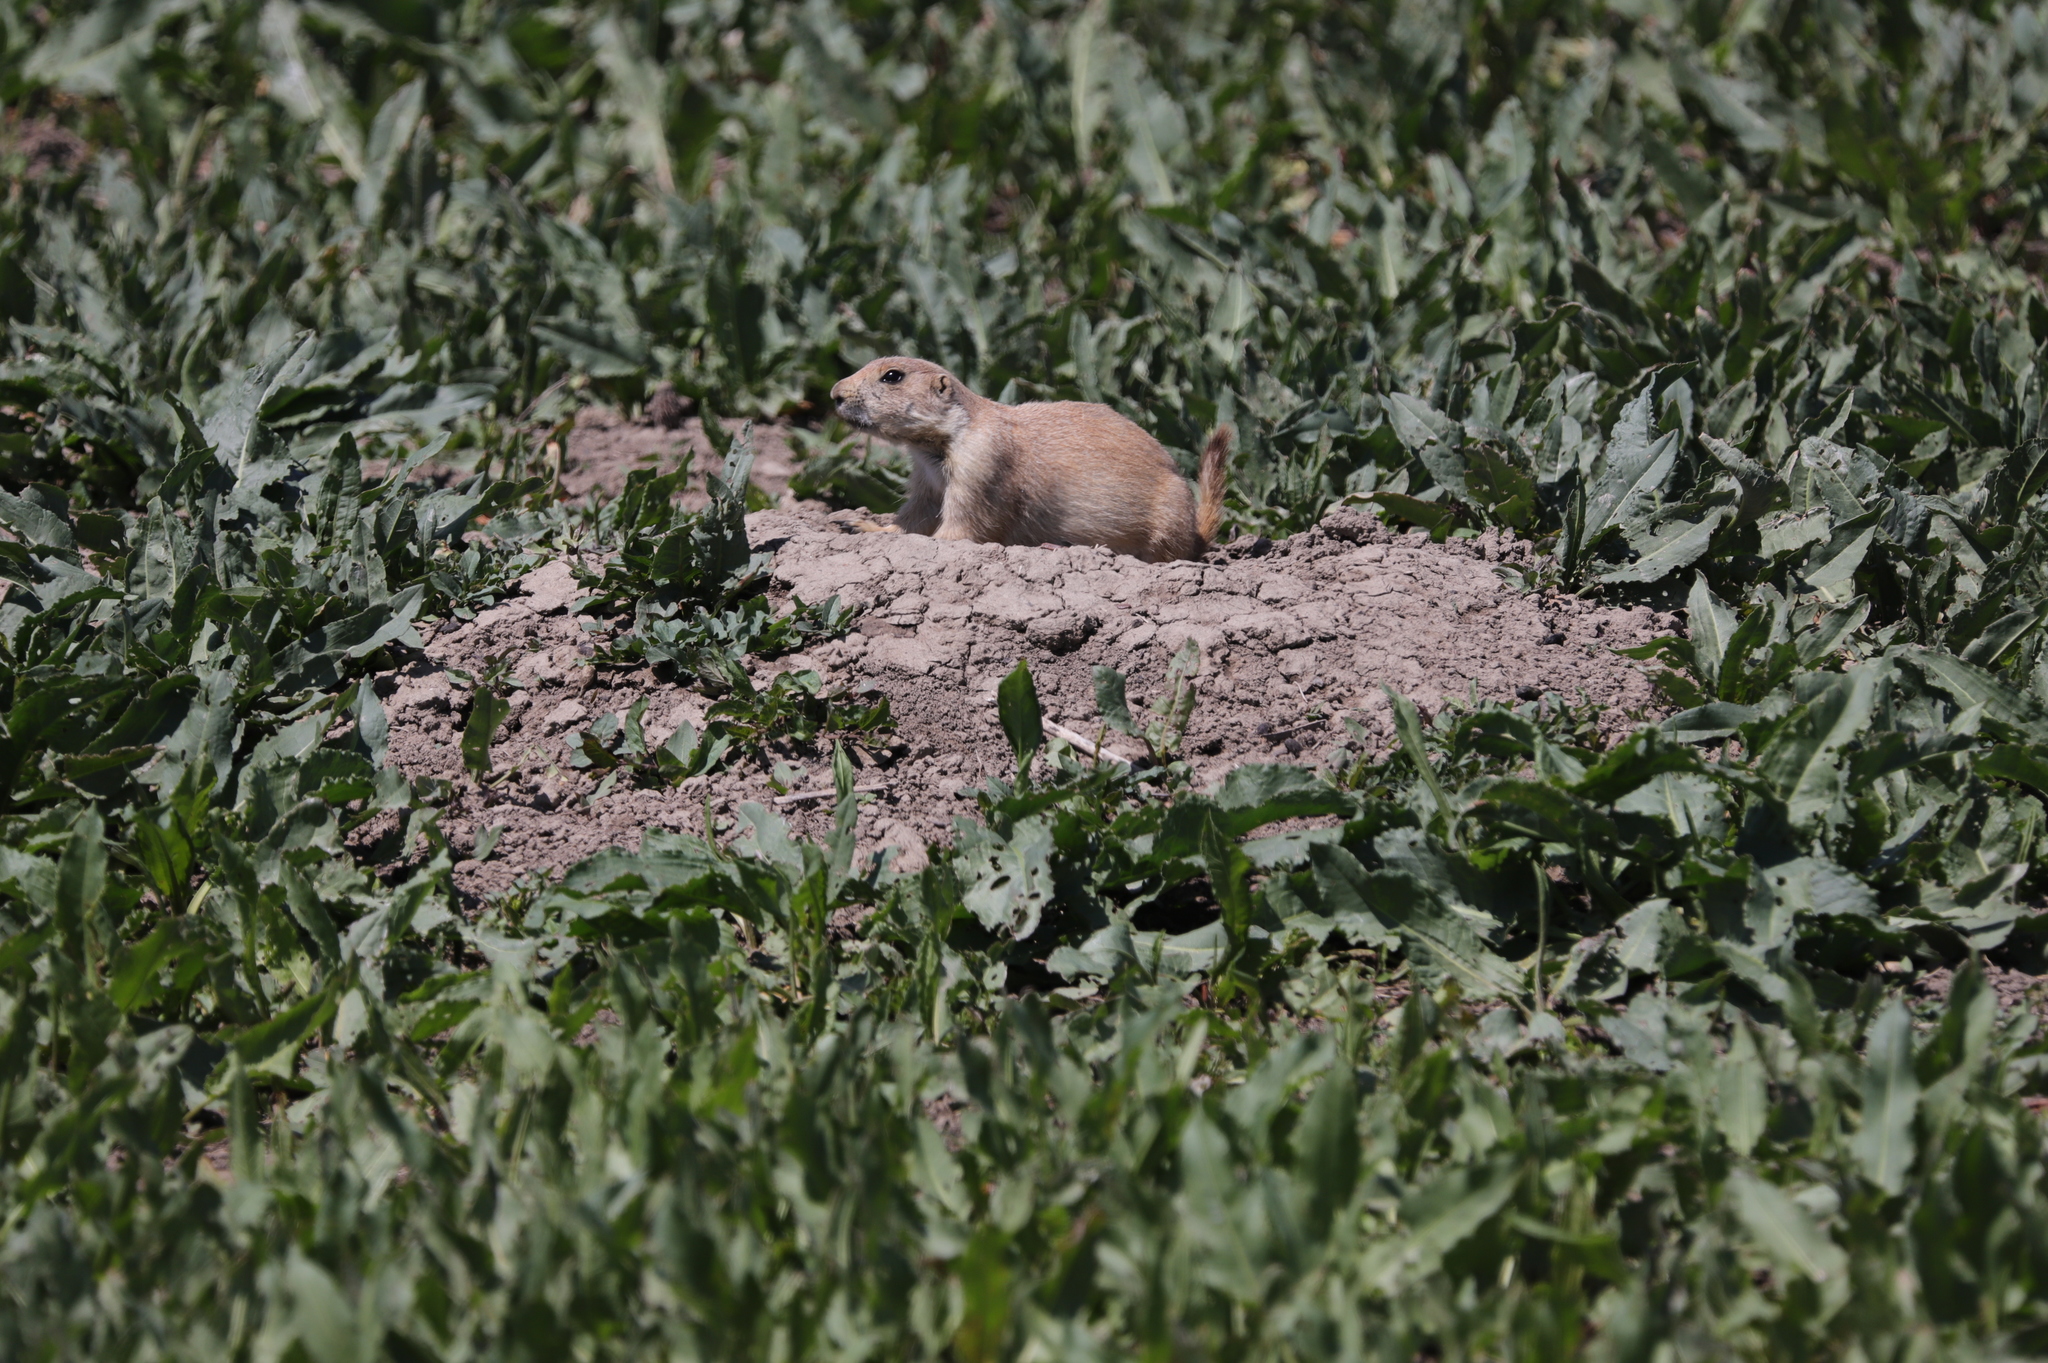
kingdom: Animalia
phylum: Chordata
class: Mammalia
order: Rodentia
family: Sciuridae
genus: Cynomys
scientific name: Cynomys ludovicianus
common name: Black-tailed prairie dog
